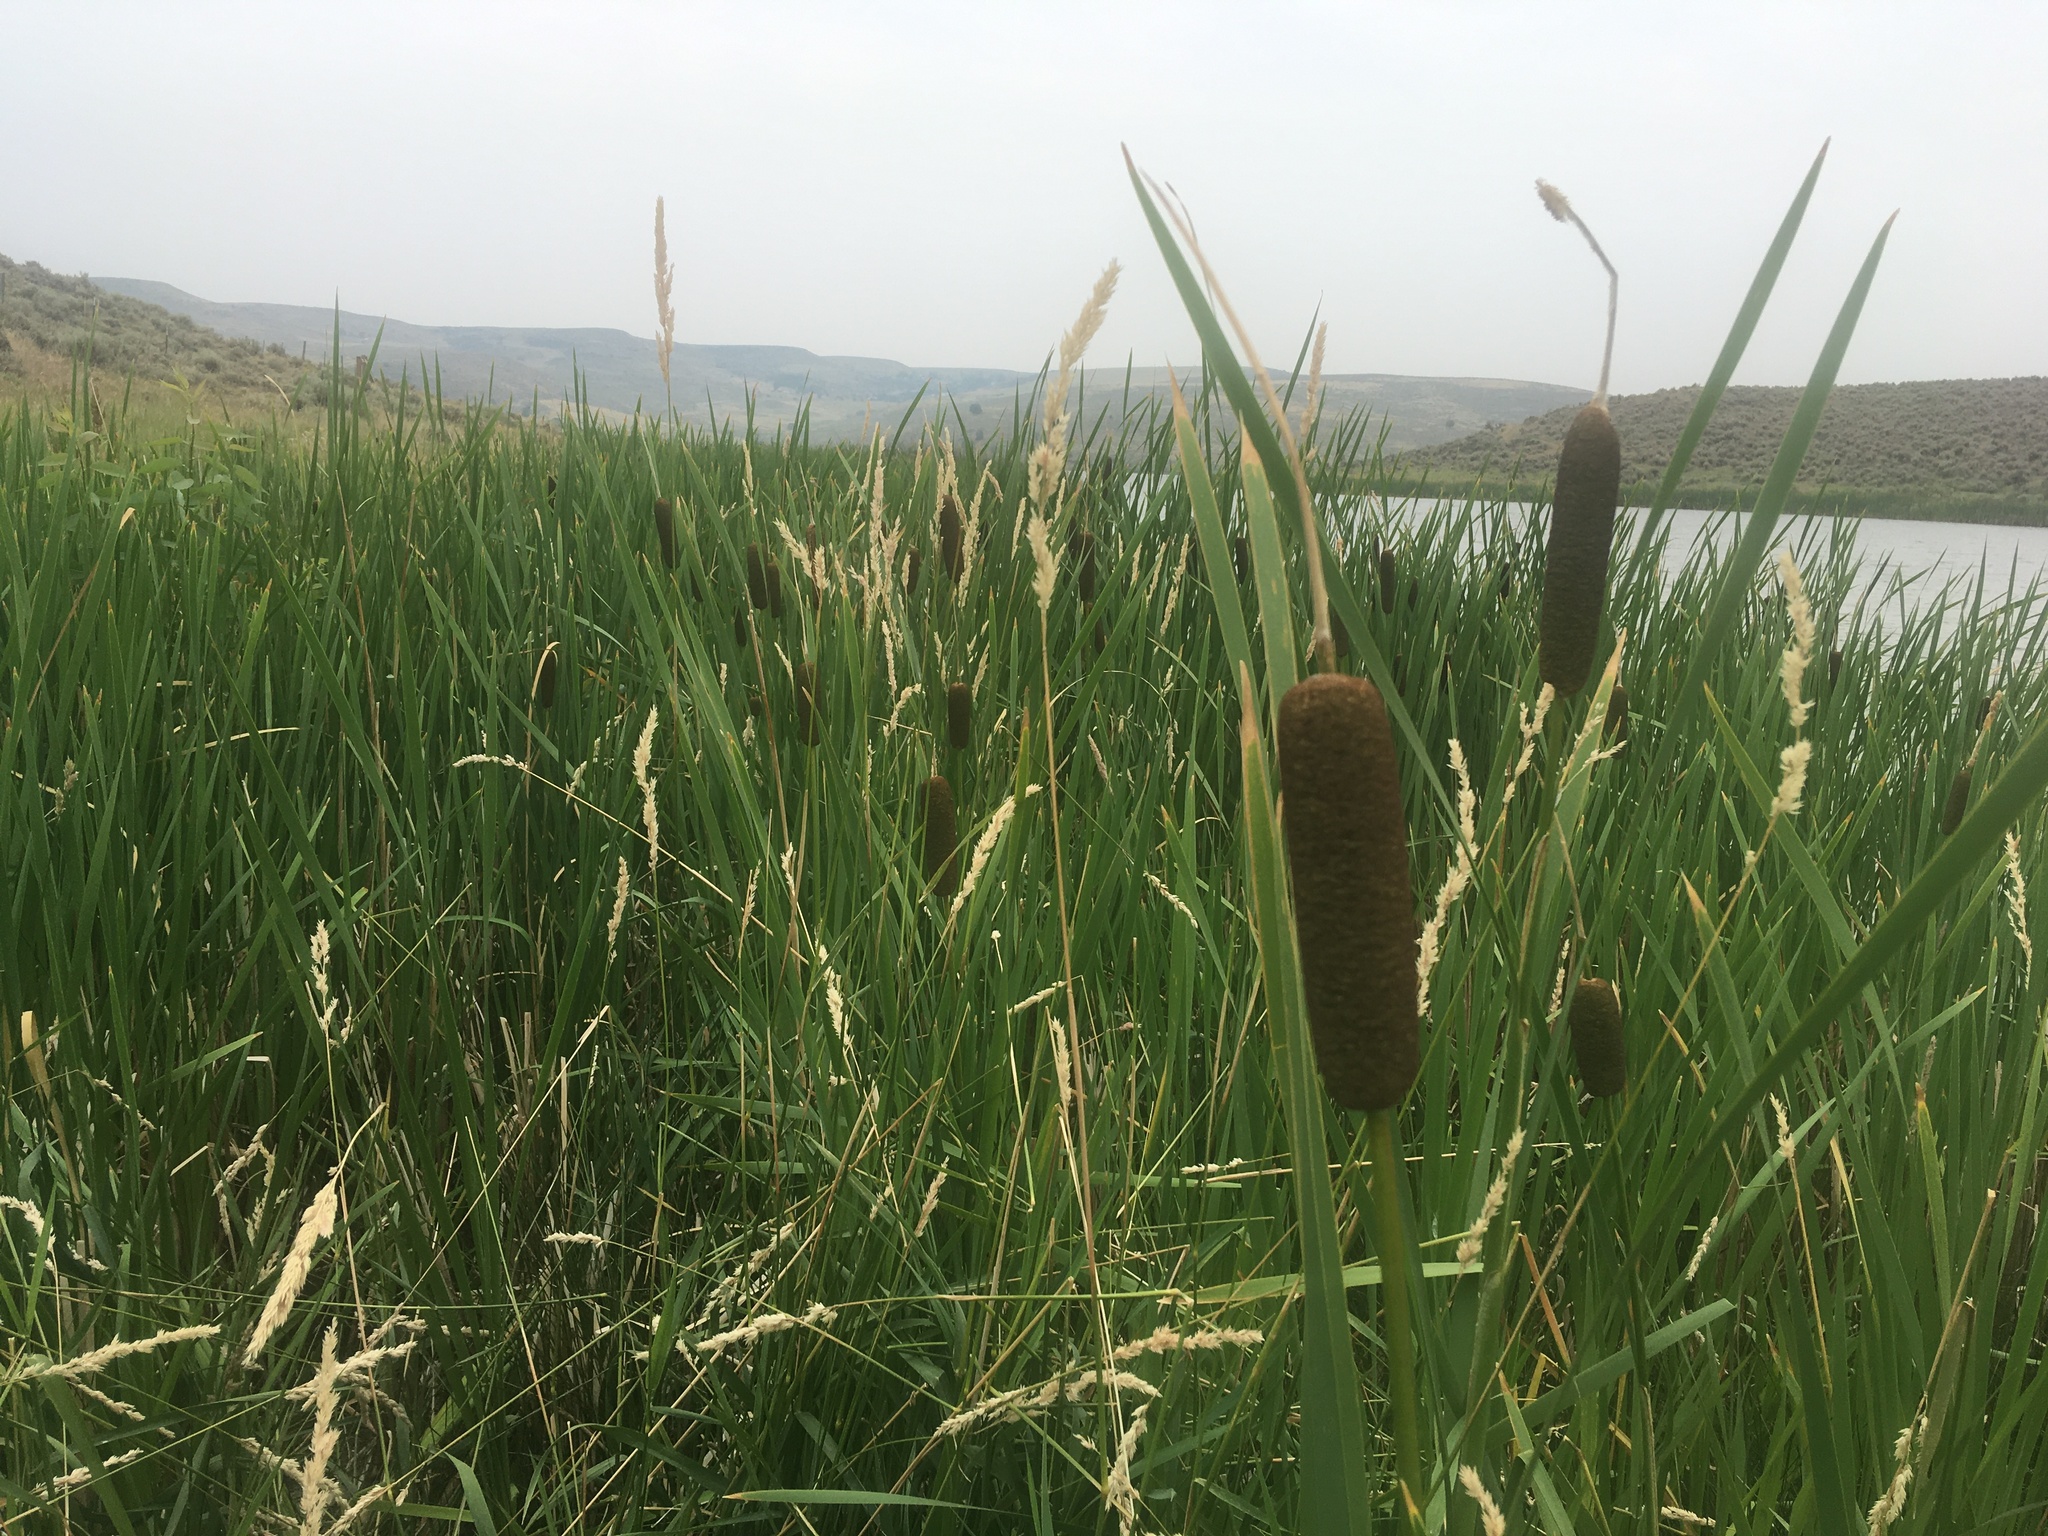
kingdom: Plantae
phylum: Tracheophyta
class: Liliopsida
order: Poales
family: Typhaceae
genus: Typha
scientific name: Typha glauca
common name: Blue cattail
